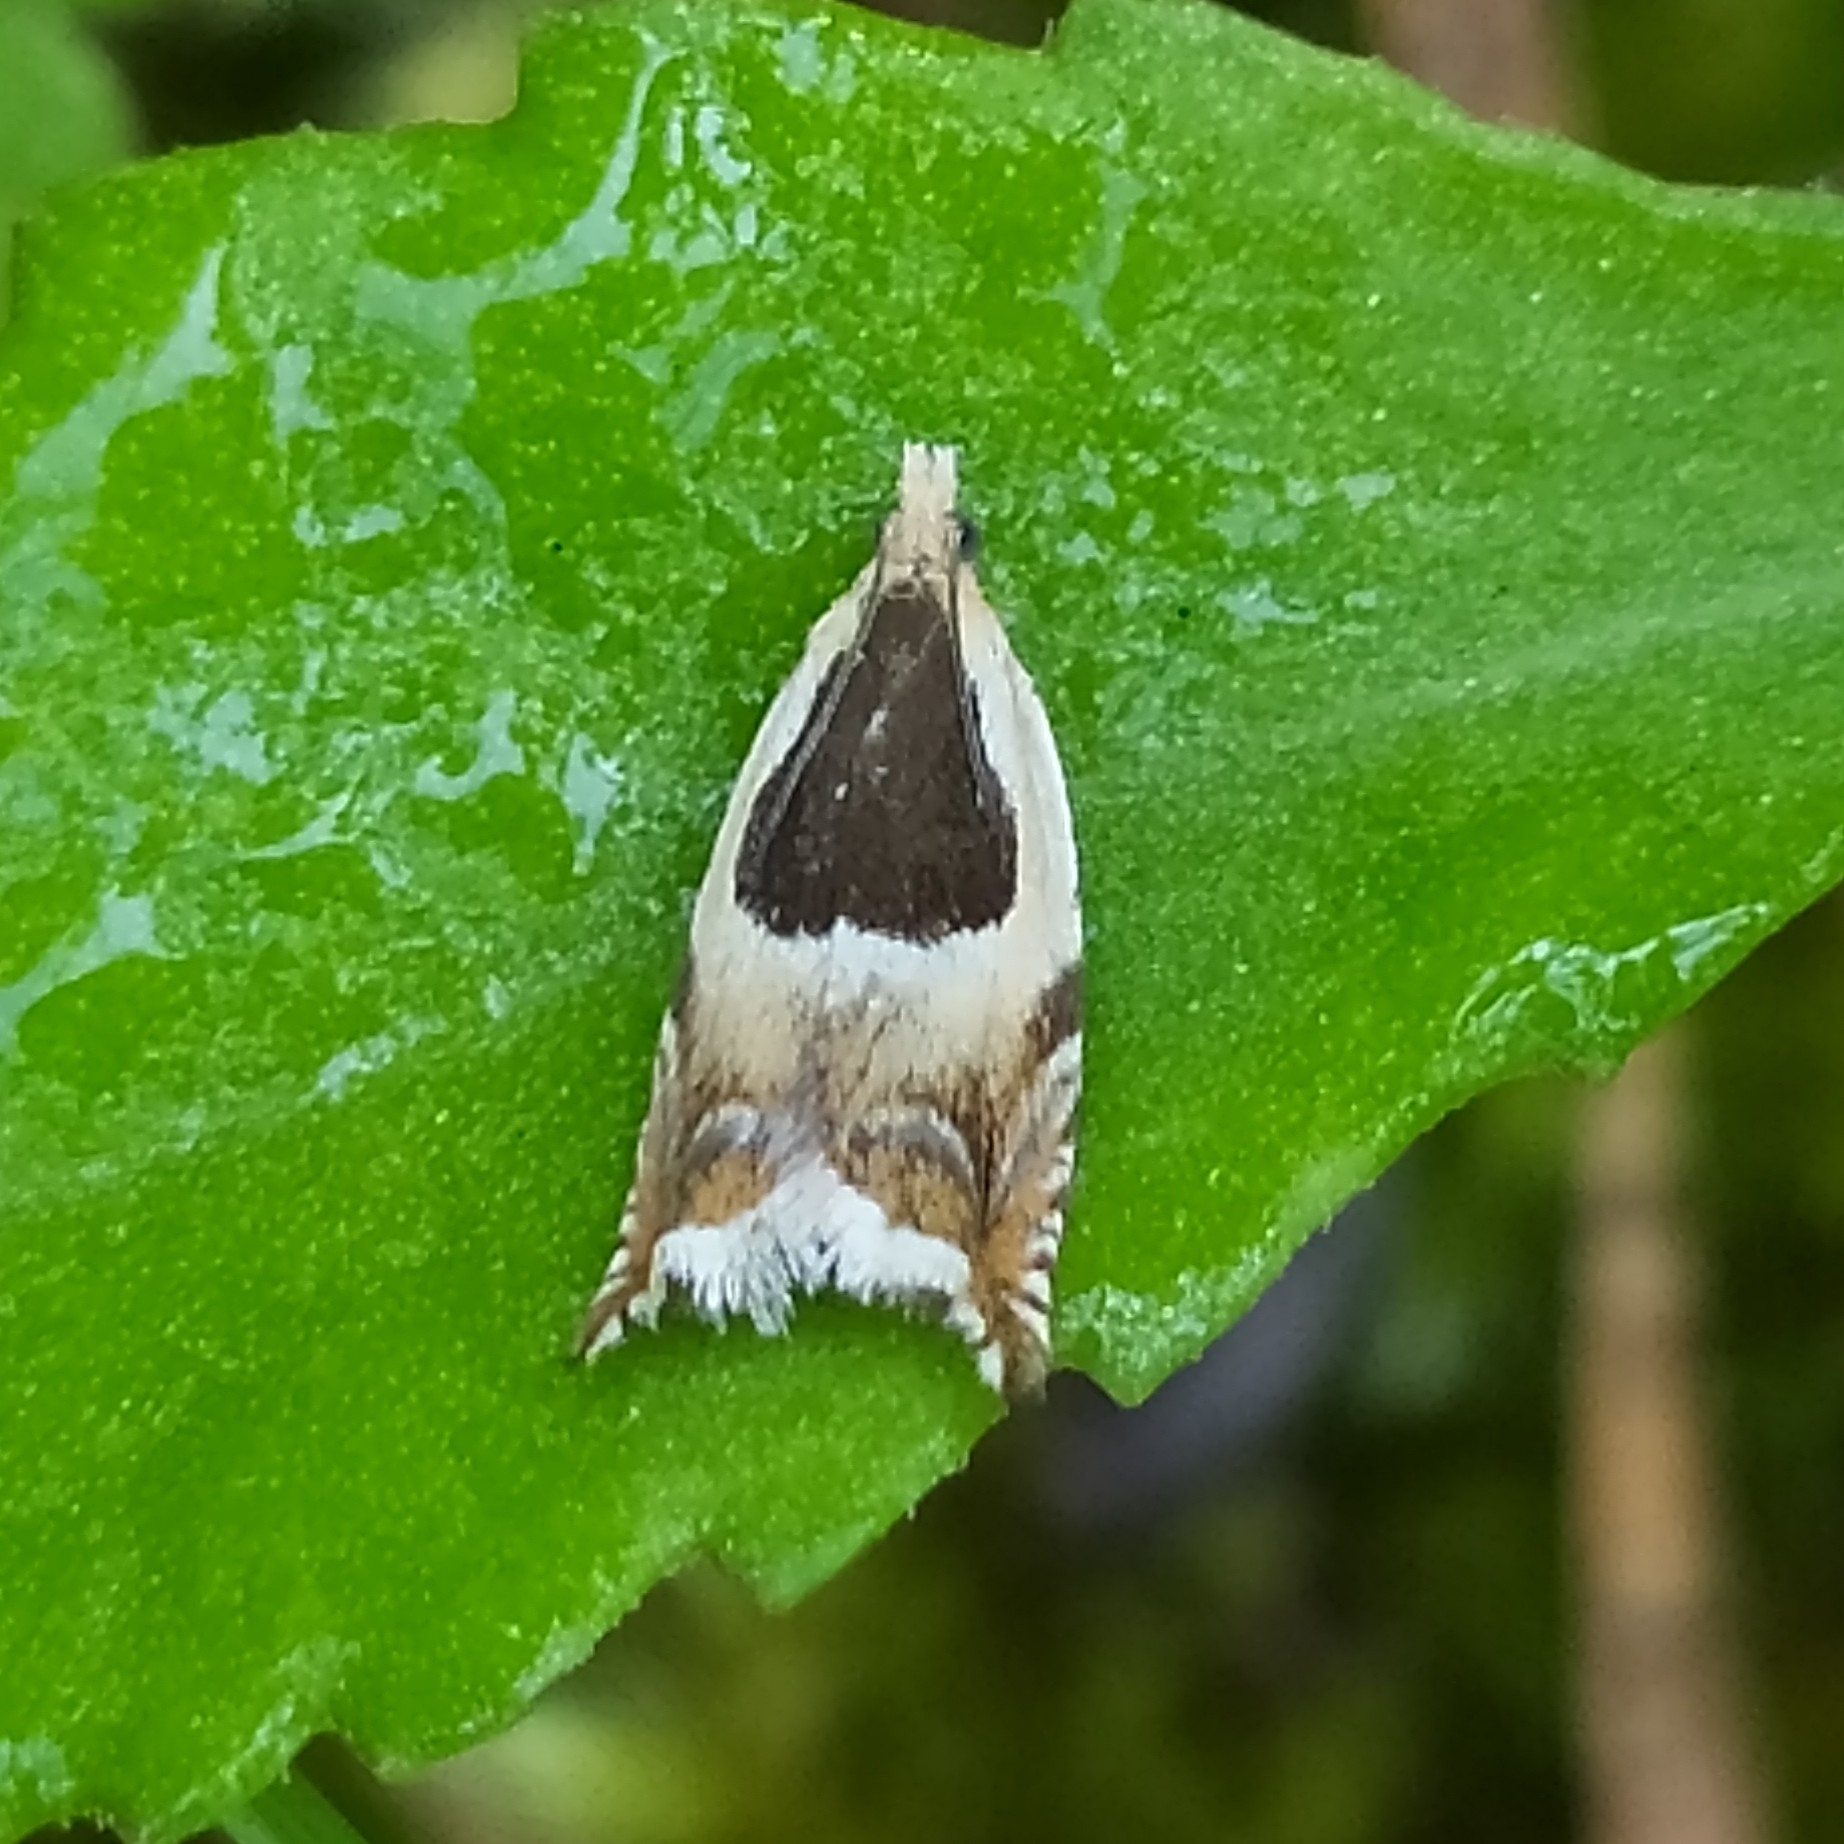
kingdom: Animalia
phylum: Arthropoda
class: Insecta
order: Lepidoptera
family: Tortricidae
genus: Ancylis
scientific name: Ancylis badiana
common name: Common roller
